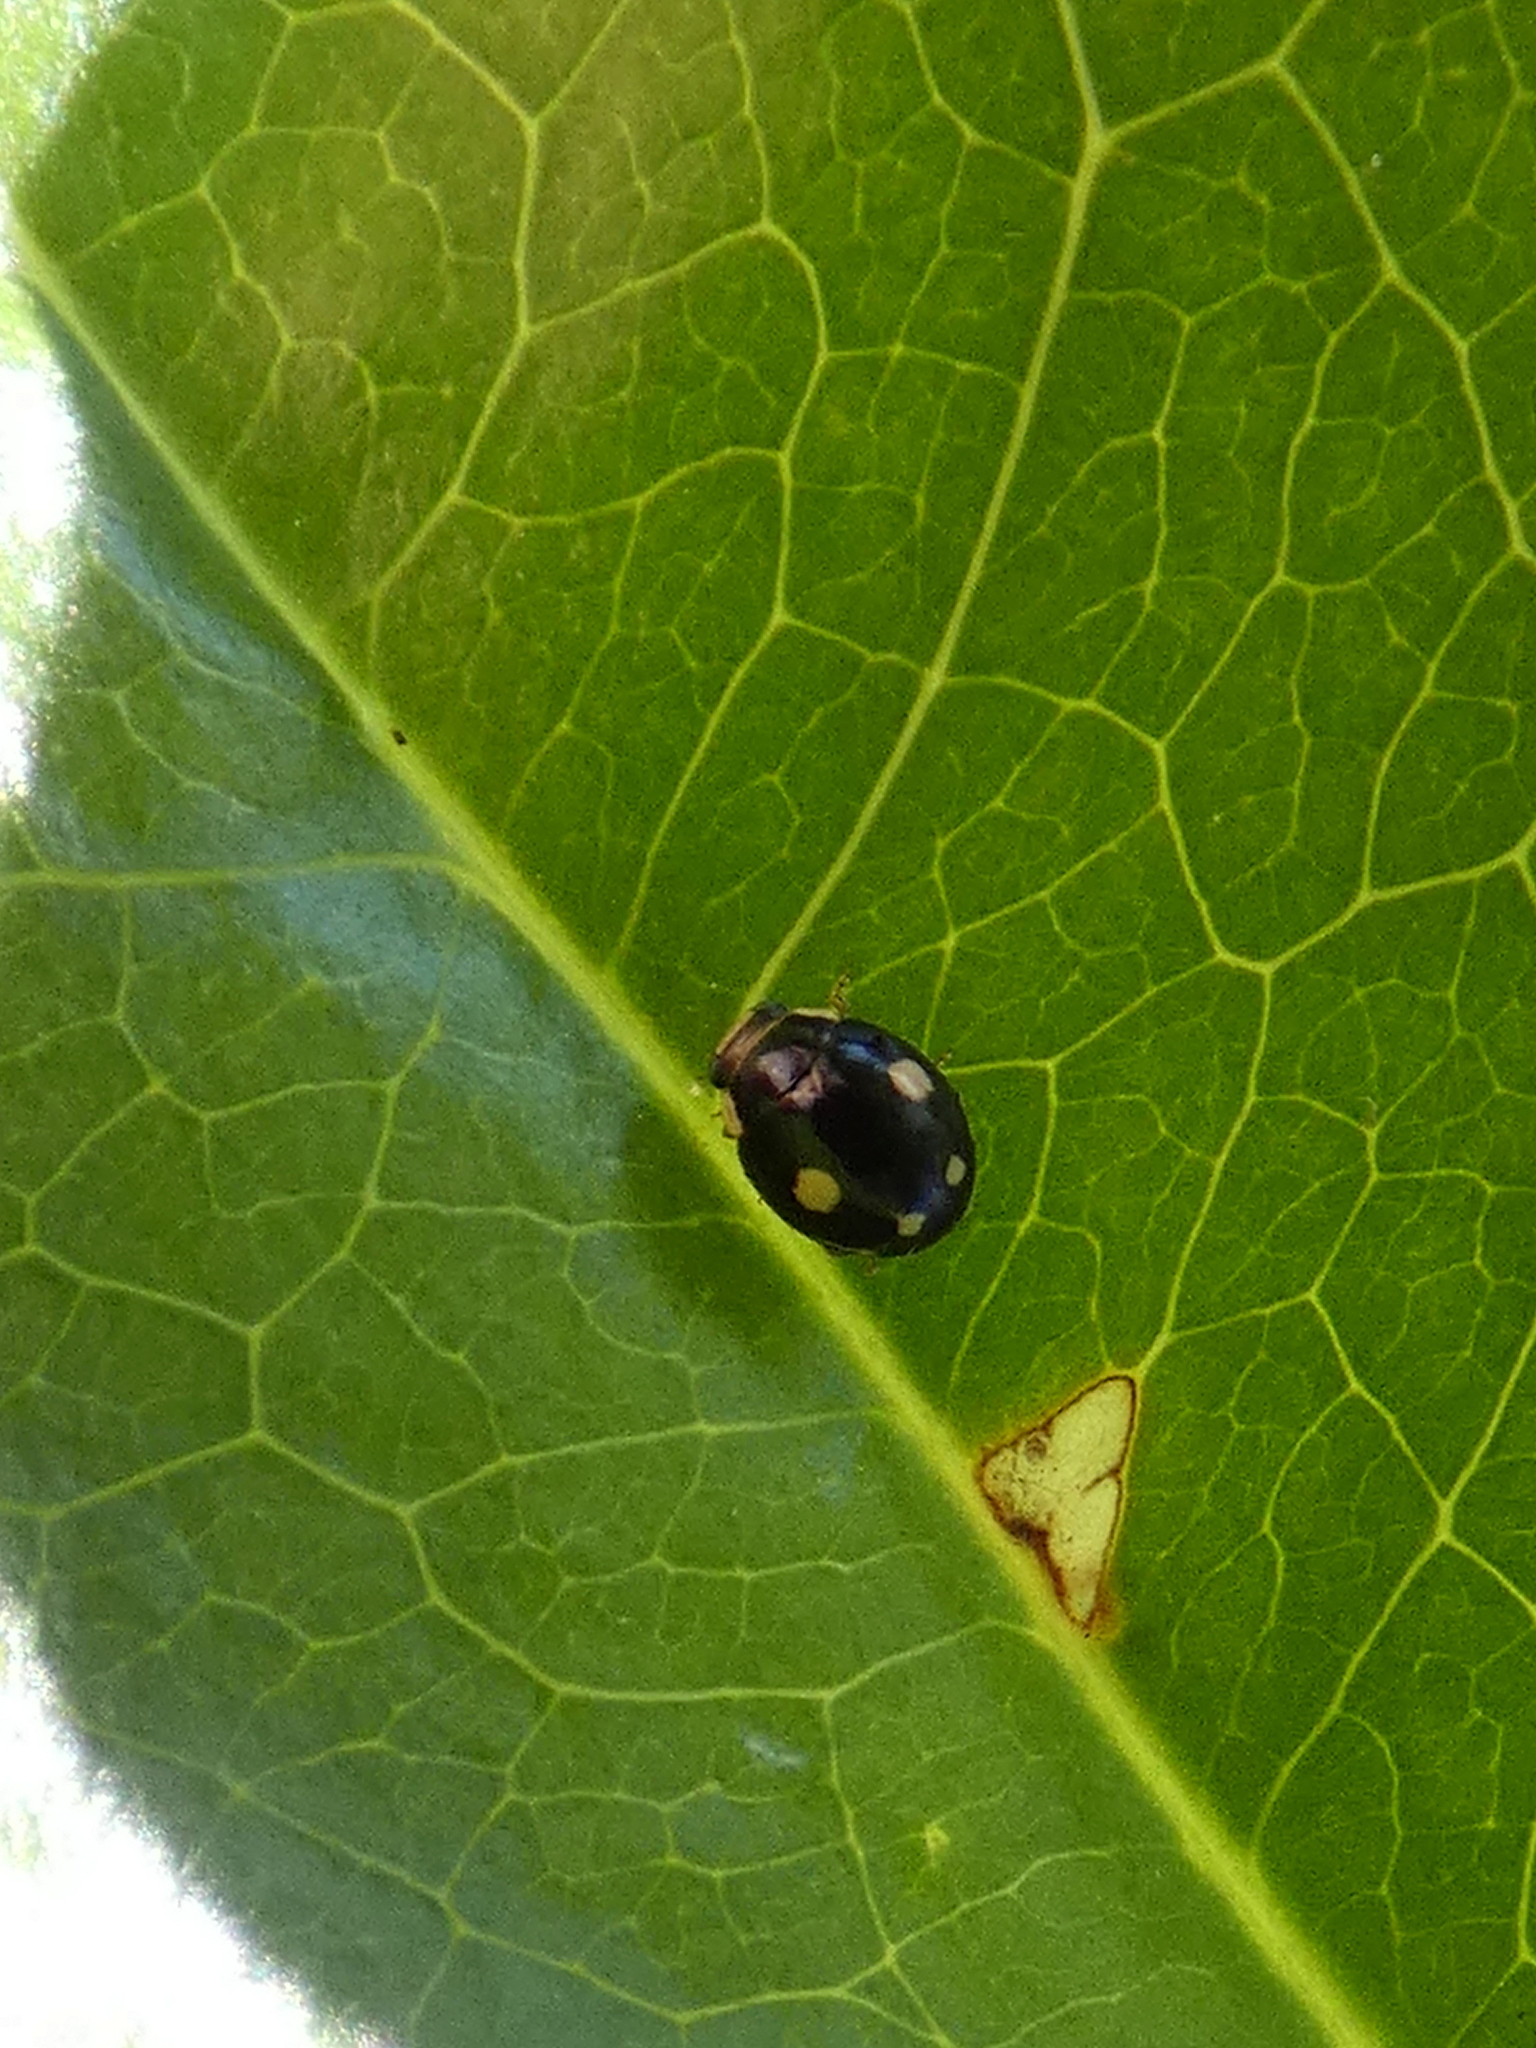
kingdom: Animalia
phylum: Arthropoda
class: Insecta
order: Coleoptera
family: Coccinellidae
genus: Hyperaspis
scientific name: Hyperaspis proba
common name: Esteemed sigil lady beetle
